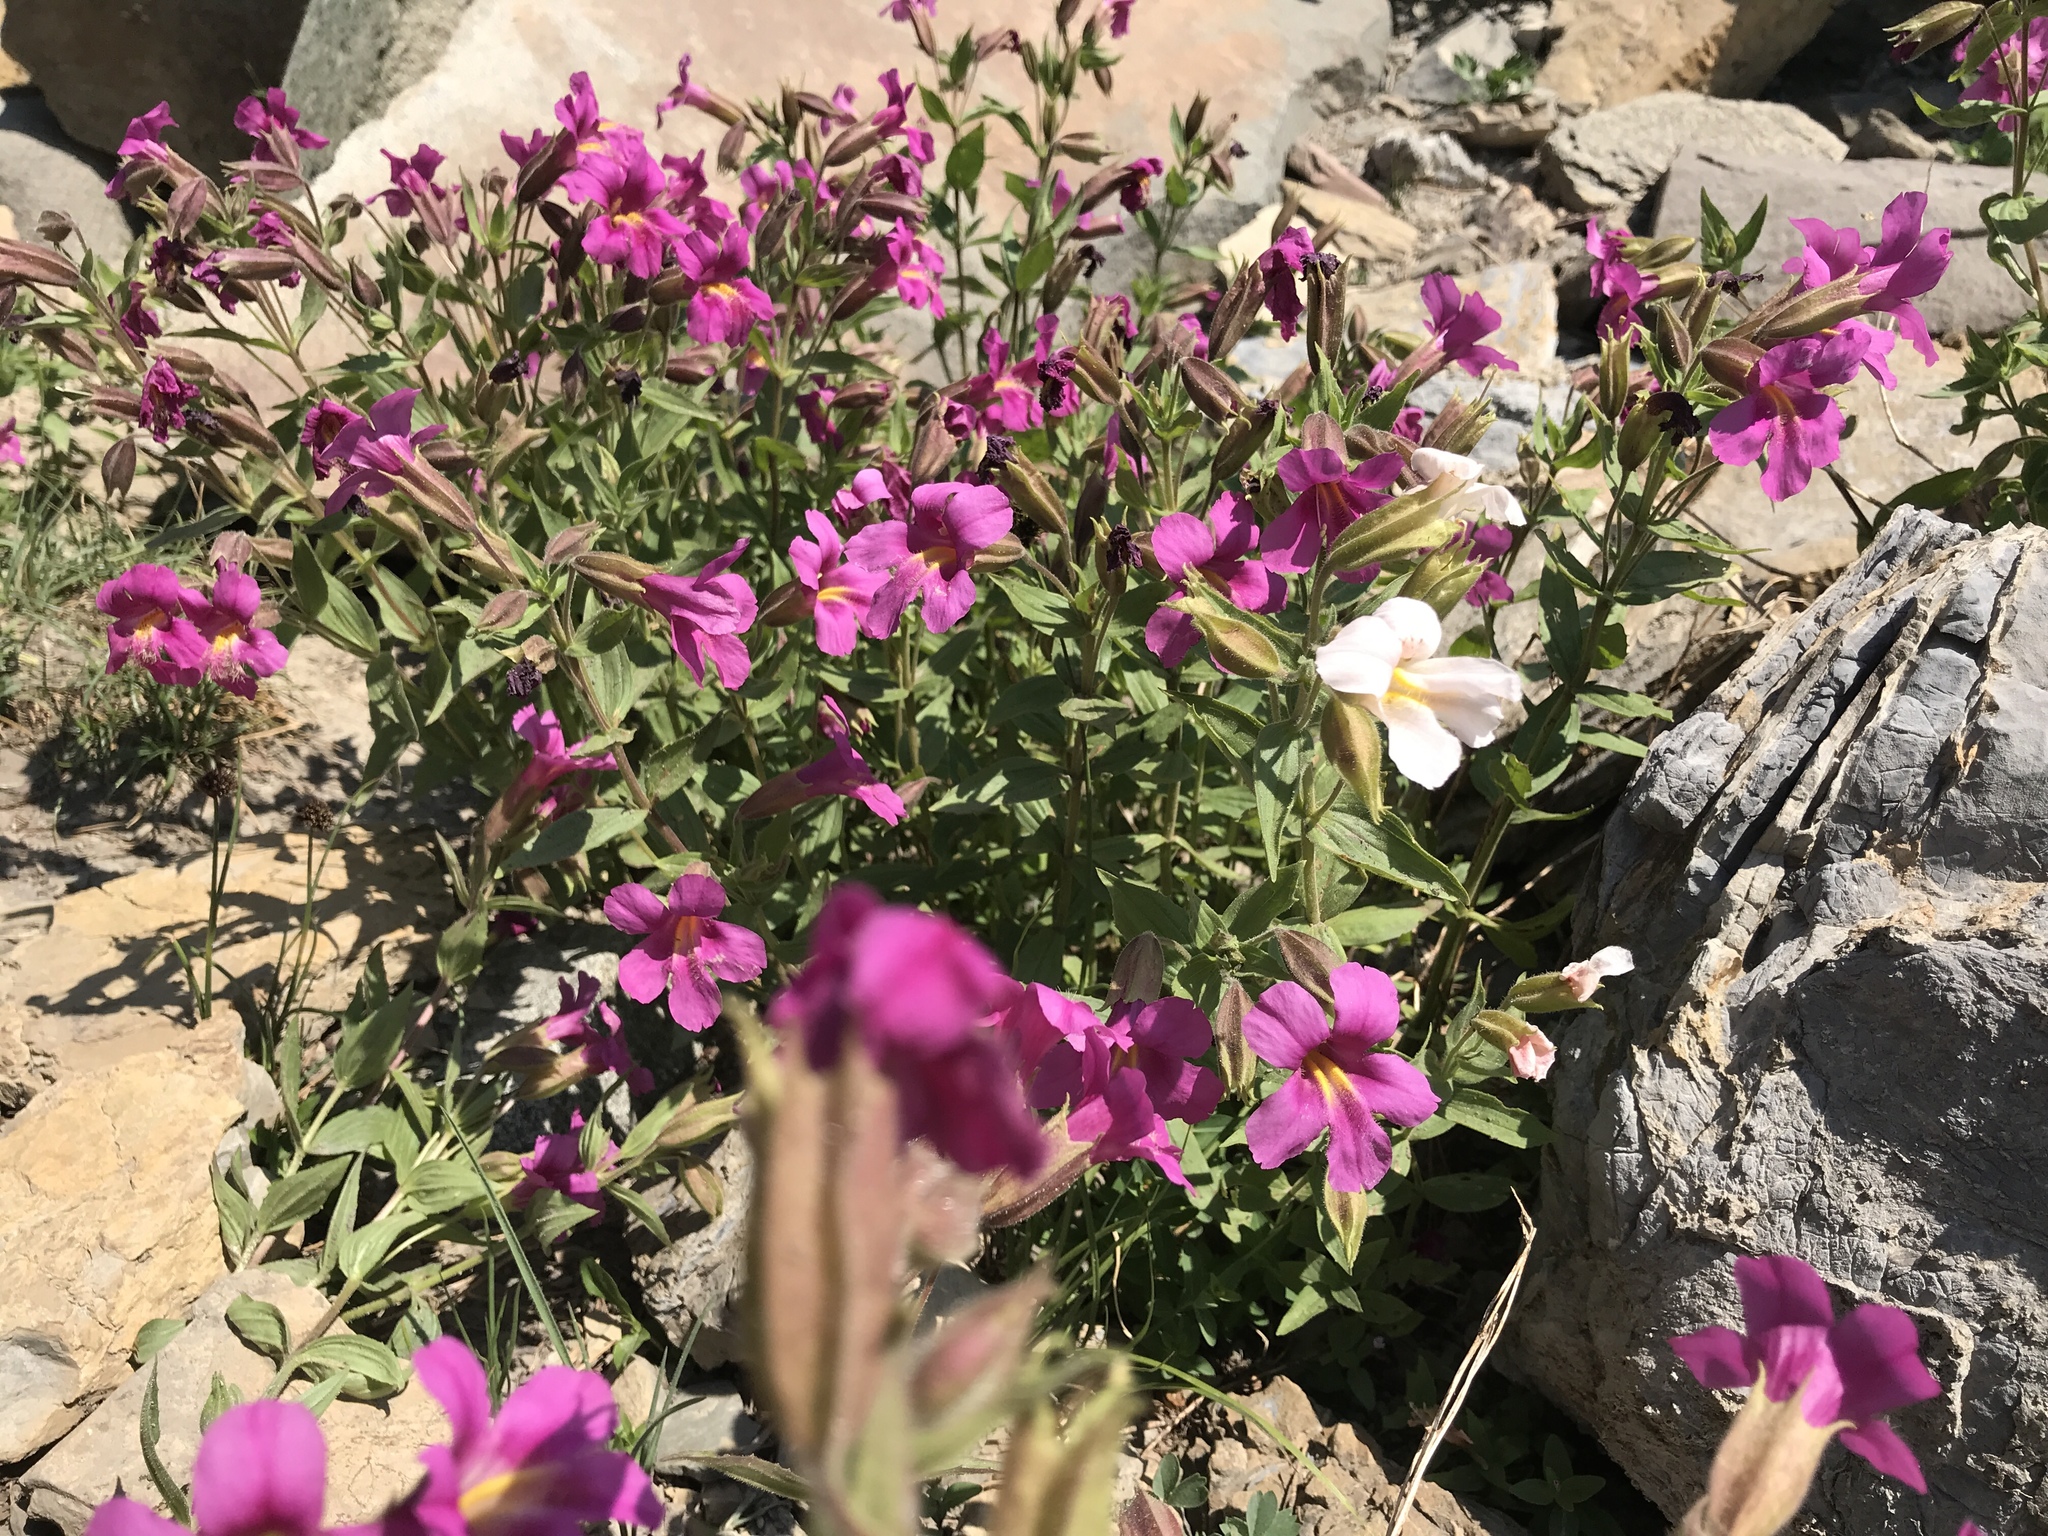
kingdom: Plantae
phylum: Tracheophyta
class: Magnoliopsida
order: Lamiales
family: Phrymaceae
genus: Erythranthe
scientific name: Erythranthe lewisii
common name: Lewis's monkey-flower
